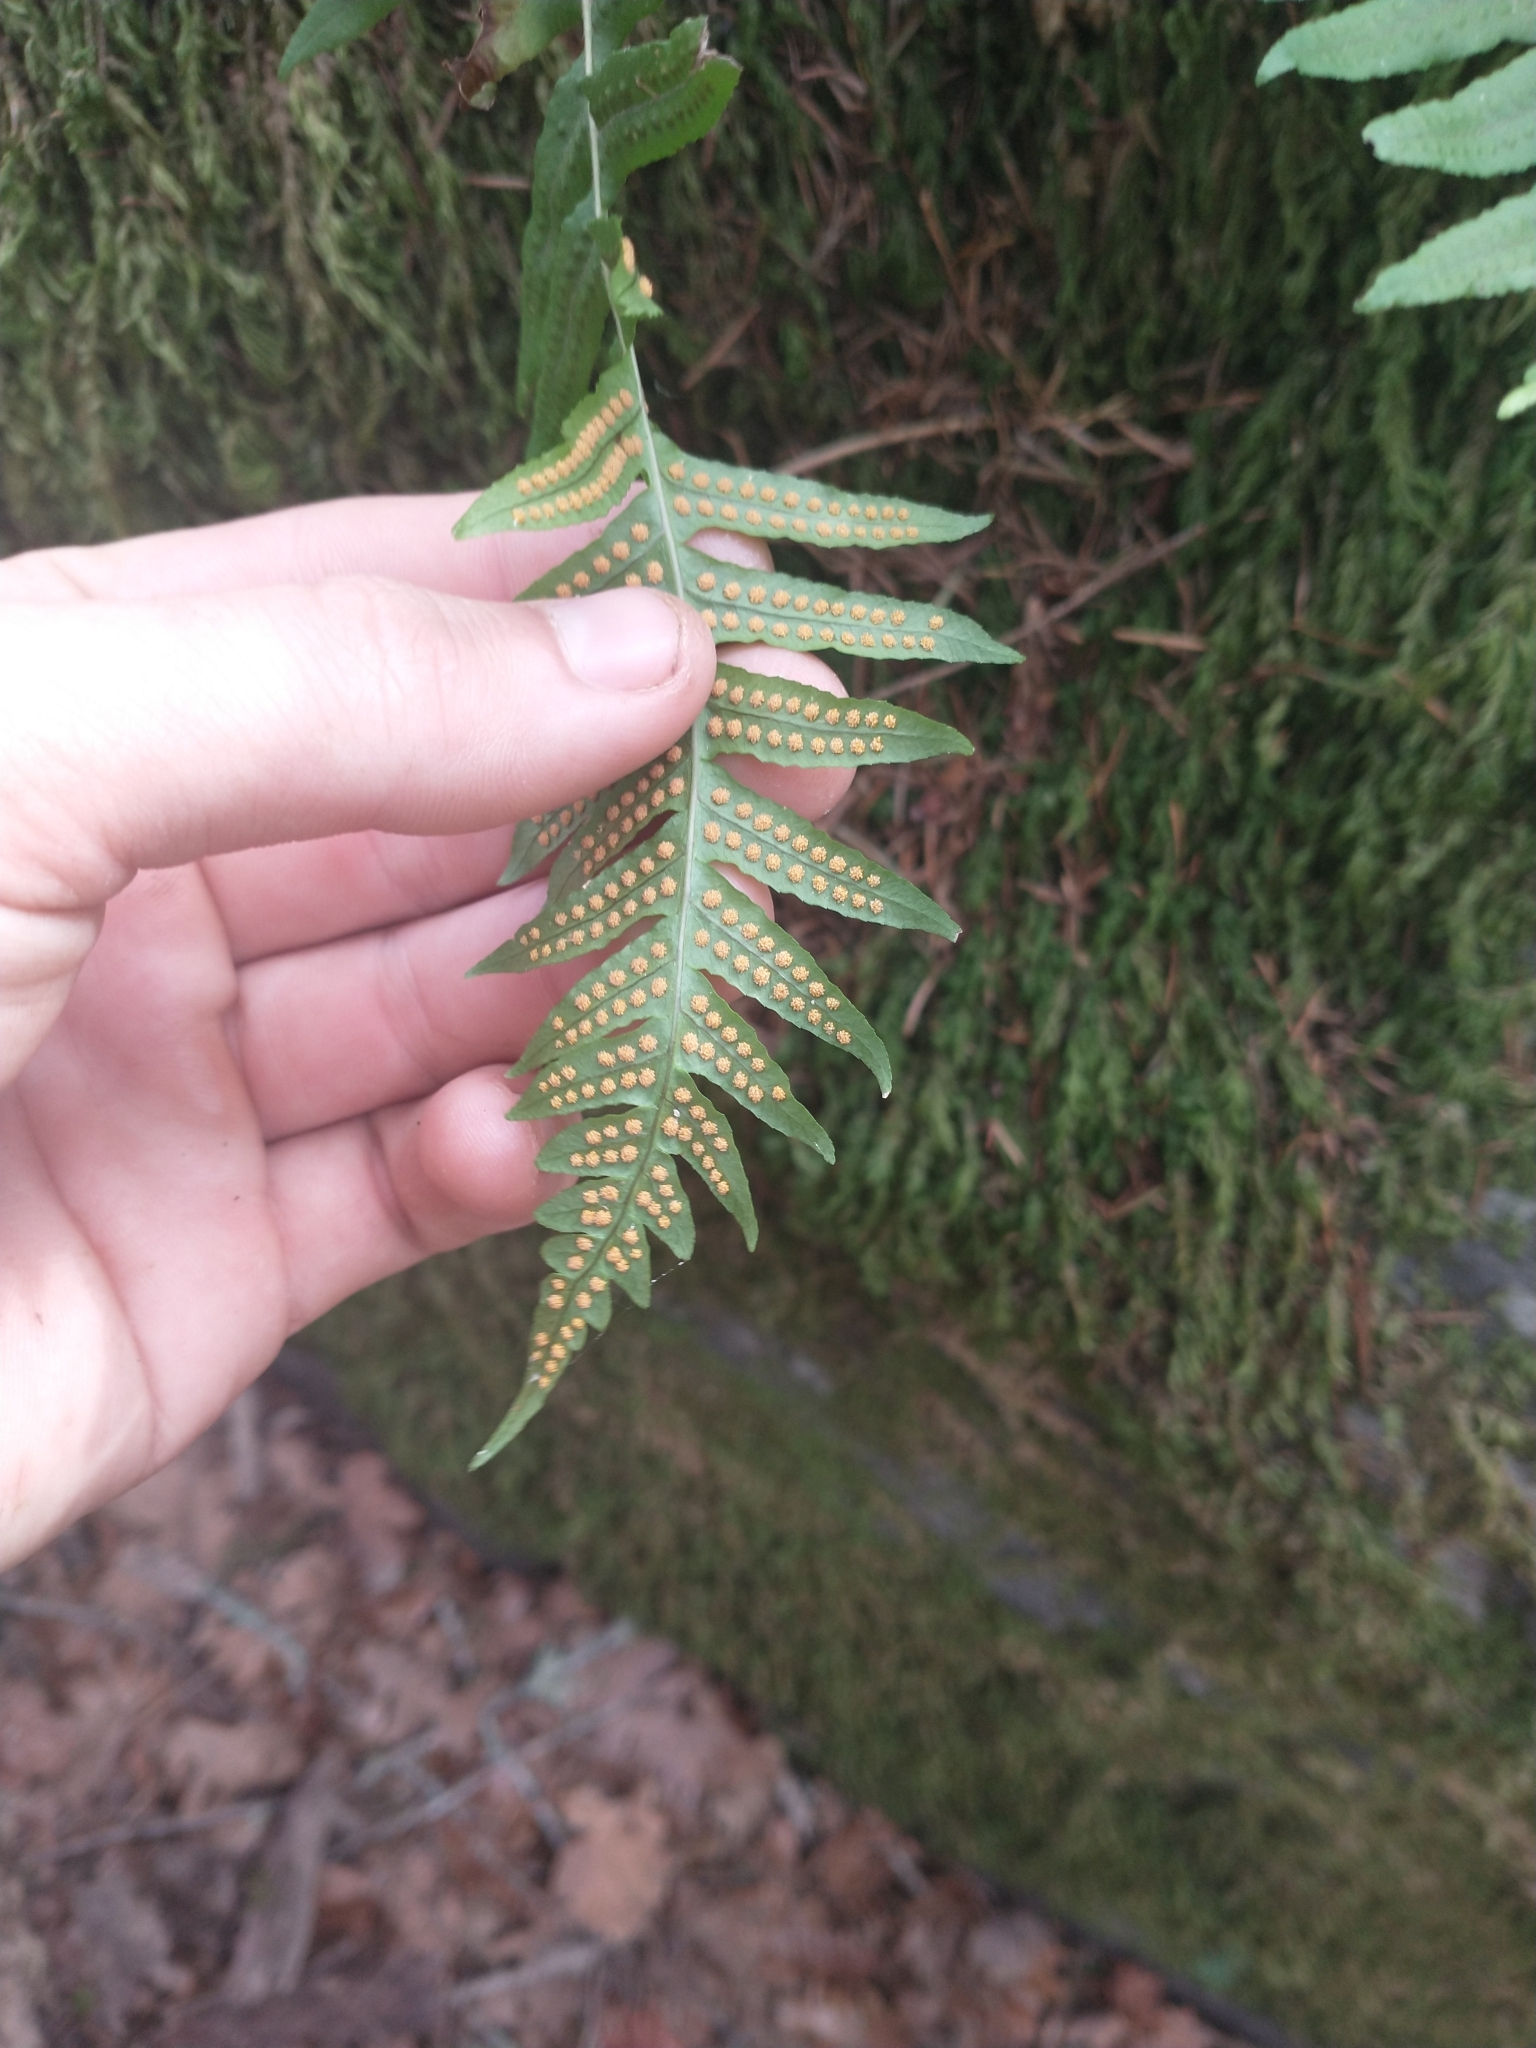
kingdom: Plantae
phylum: Tracheophyta
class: Polypodiopsida
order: Polypodiales
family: Polypodiaceae
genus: Polypodium
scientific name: Polypodium glycyrrhiza
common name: Licorice fern
